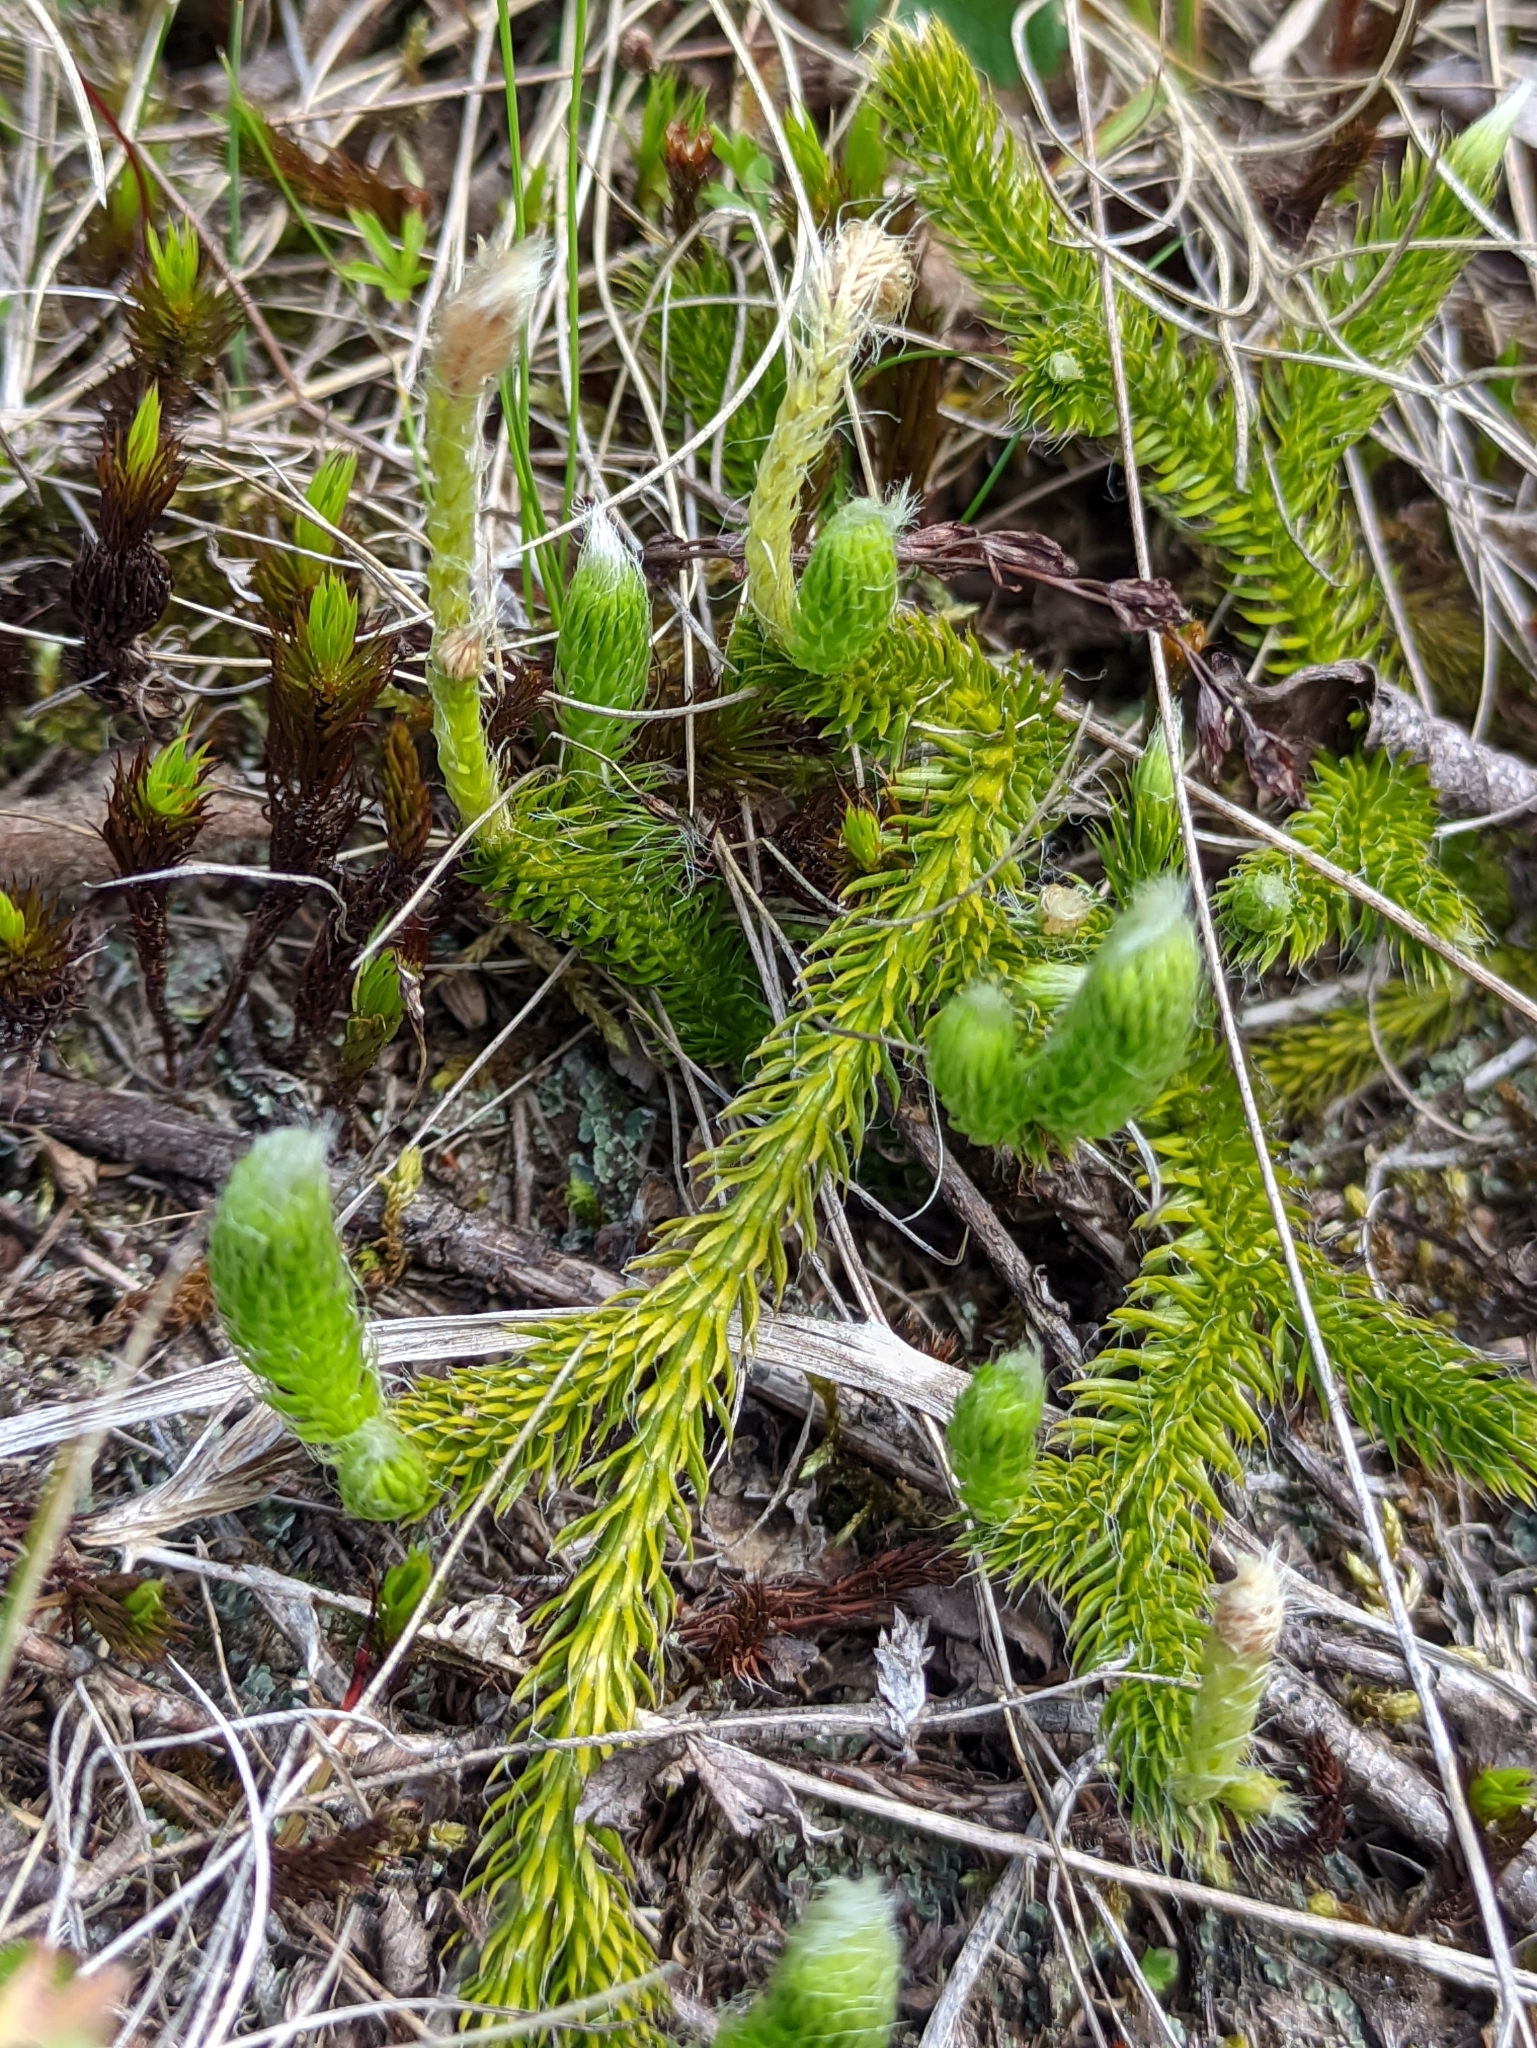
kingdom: Plantae
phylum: Tracheophyta
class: Lycopodiopsida
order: Lycopodiales
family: Lycopodiaceae
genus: Lycopodium
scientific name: Lycopodium clavatum
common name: Stag's-horn clubmoss
